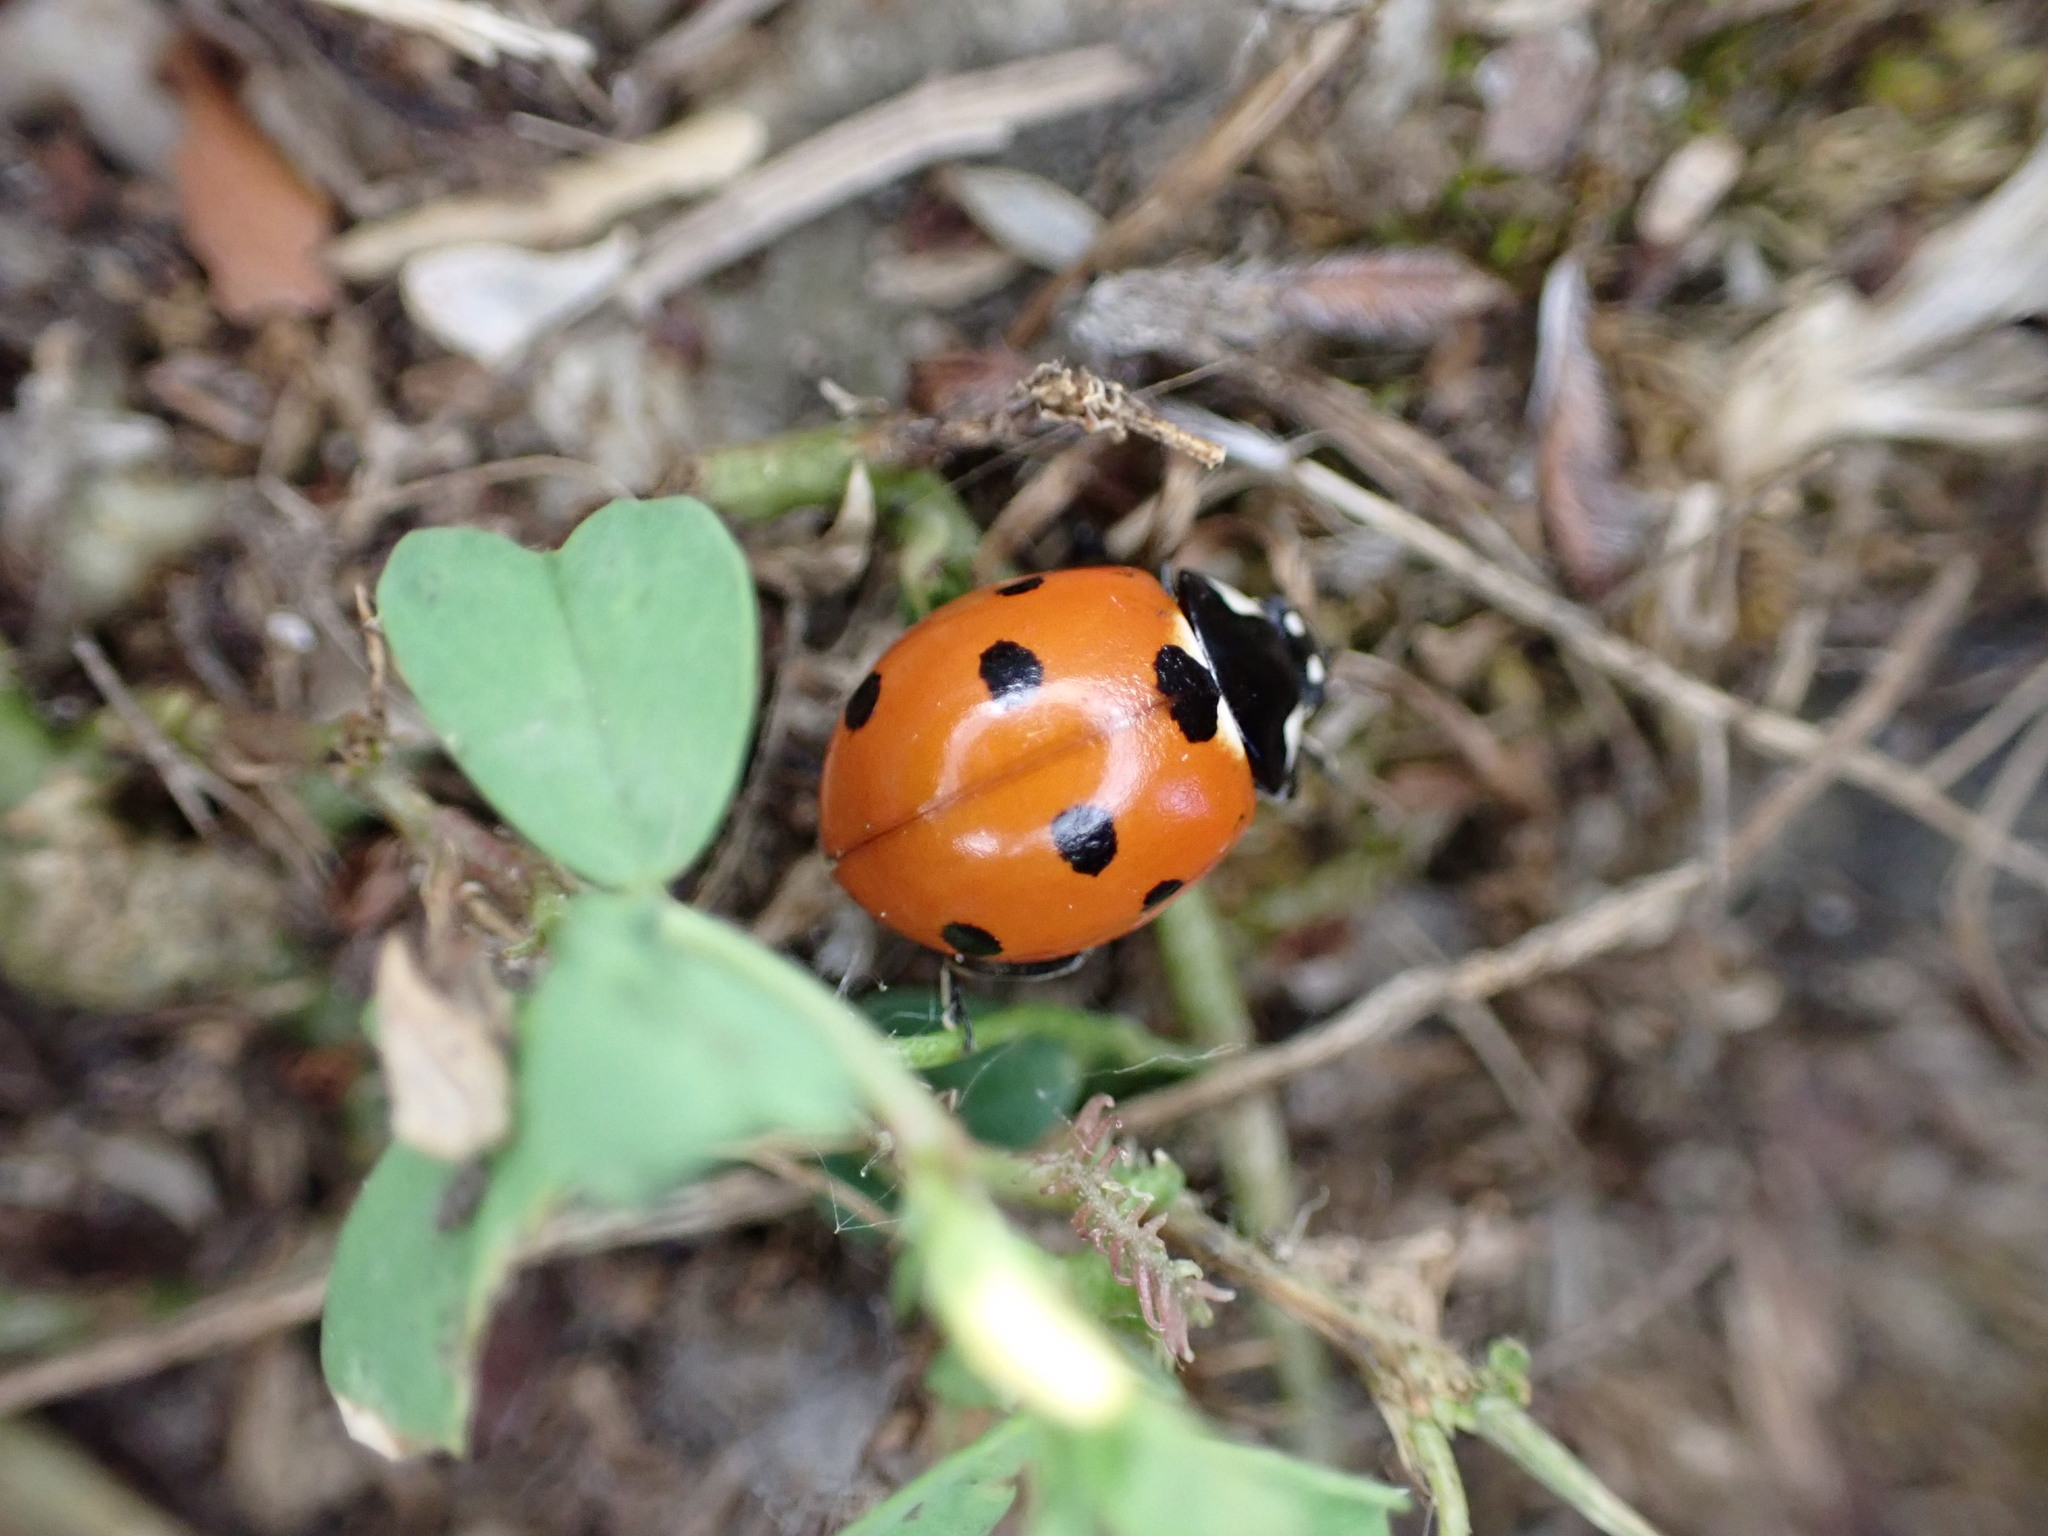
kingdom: Animalia
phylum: Arthropoda
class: Insecta
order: Coleoptera
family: Coccinellidae
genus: Coccinella
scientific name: Coccinella septempunctata
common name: Sevenspotted lady beetle
